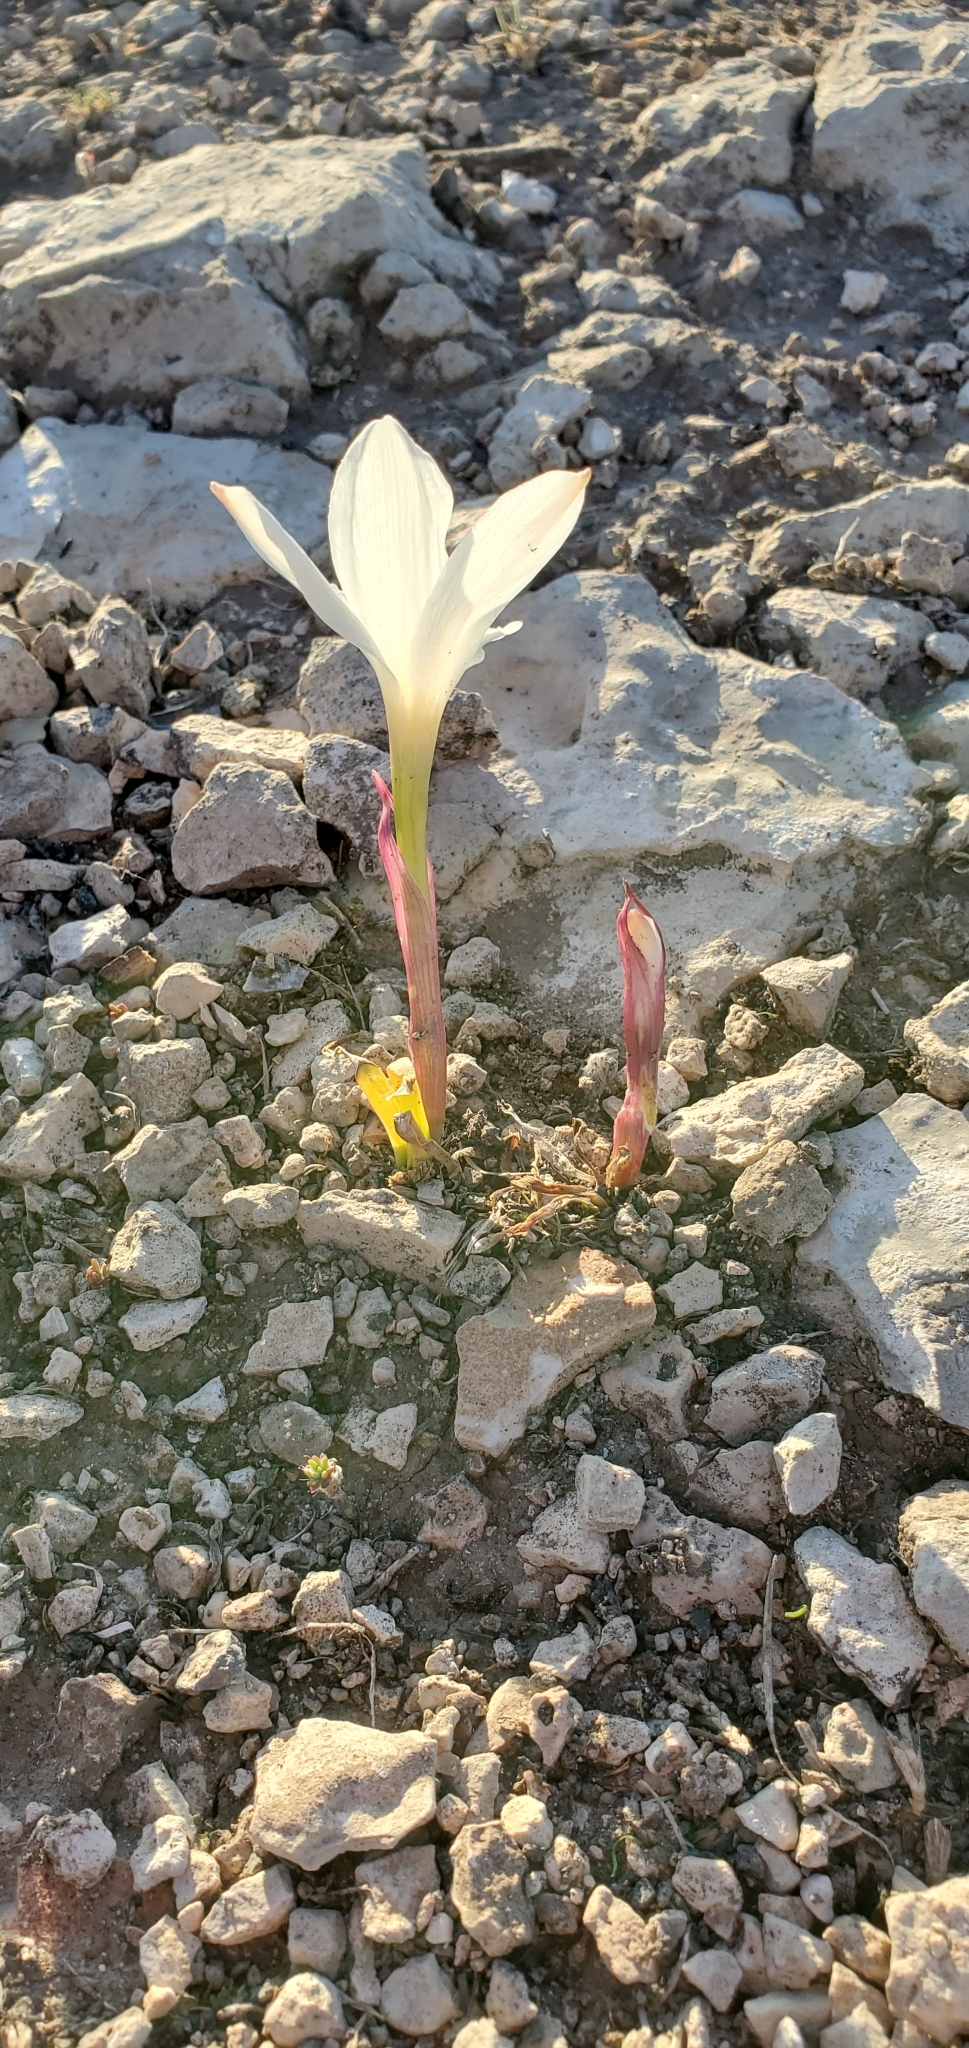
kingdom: Plantae
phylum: Tracheophyta
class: Liliopsida
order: Asparagales
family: Amaryllidaceae
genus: Zephyranthes
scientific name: Zephyranthes drummondii
